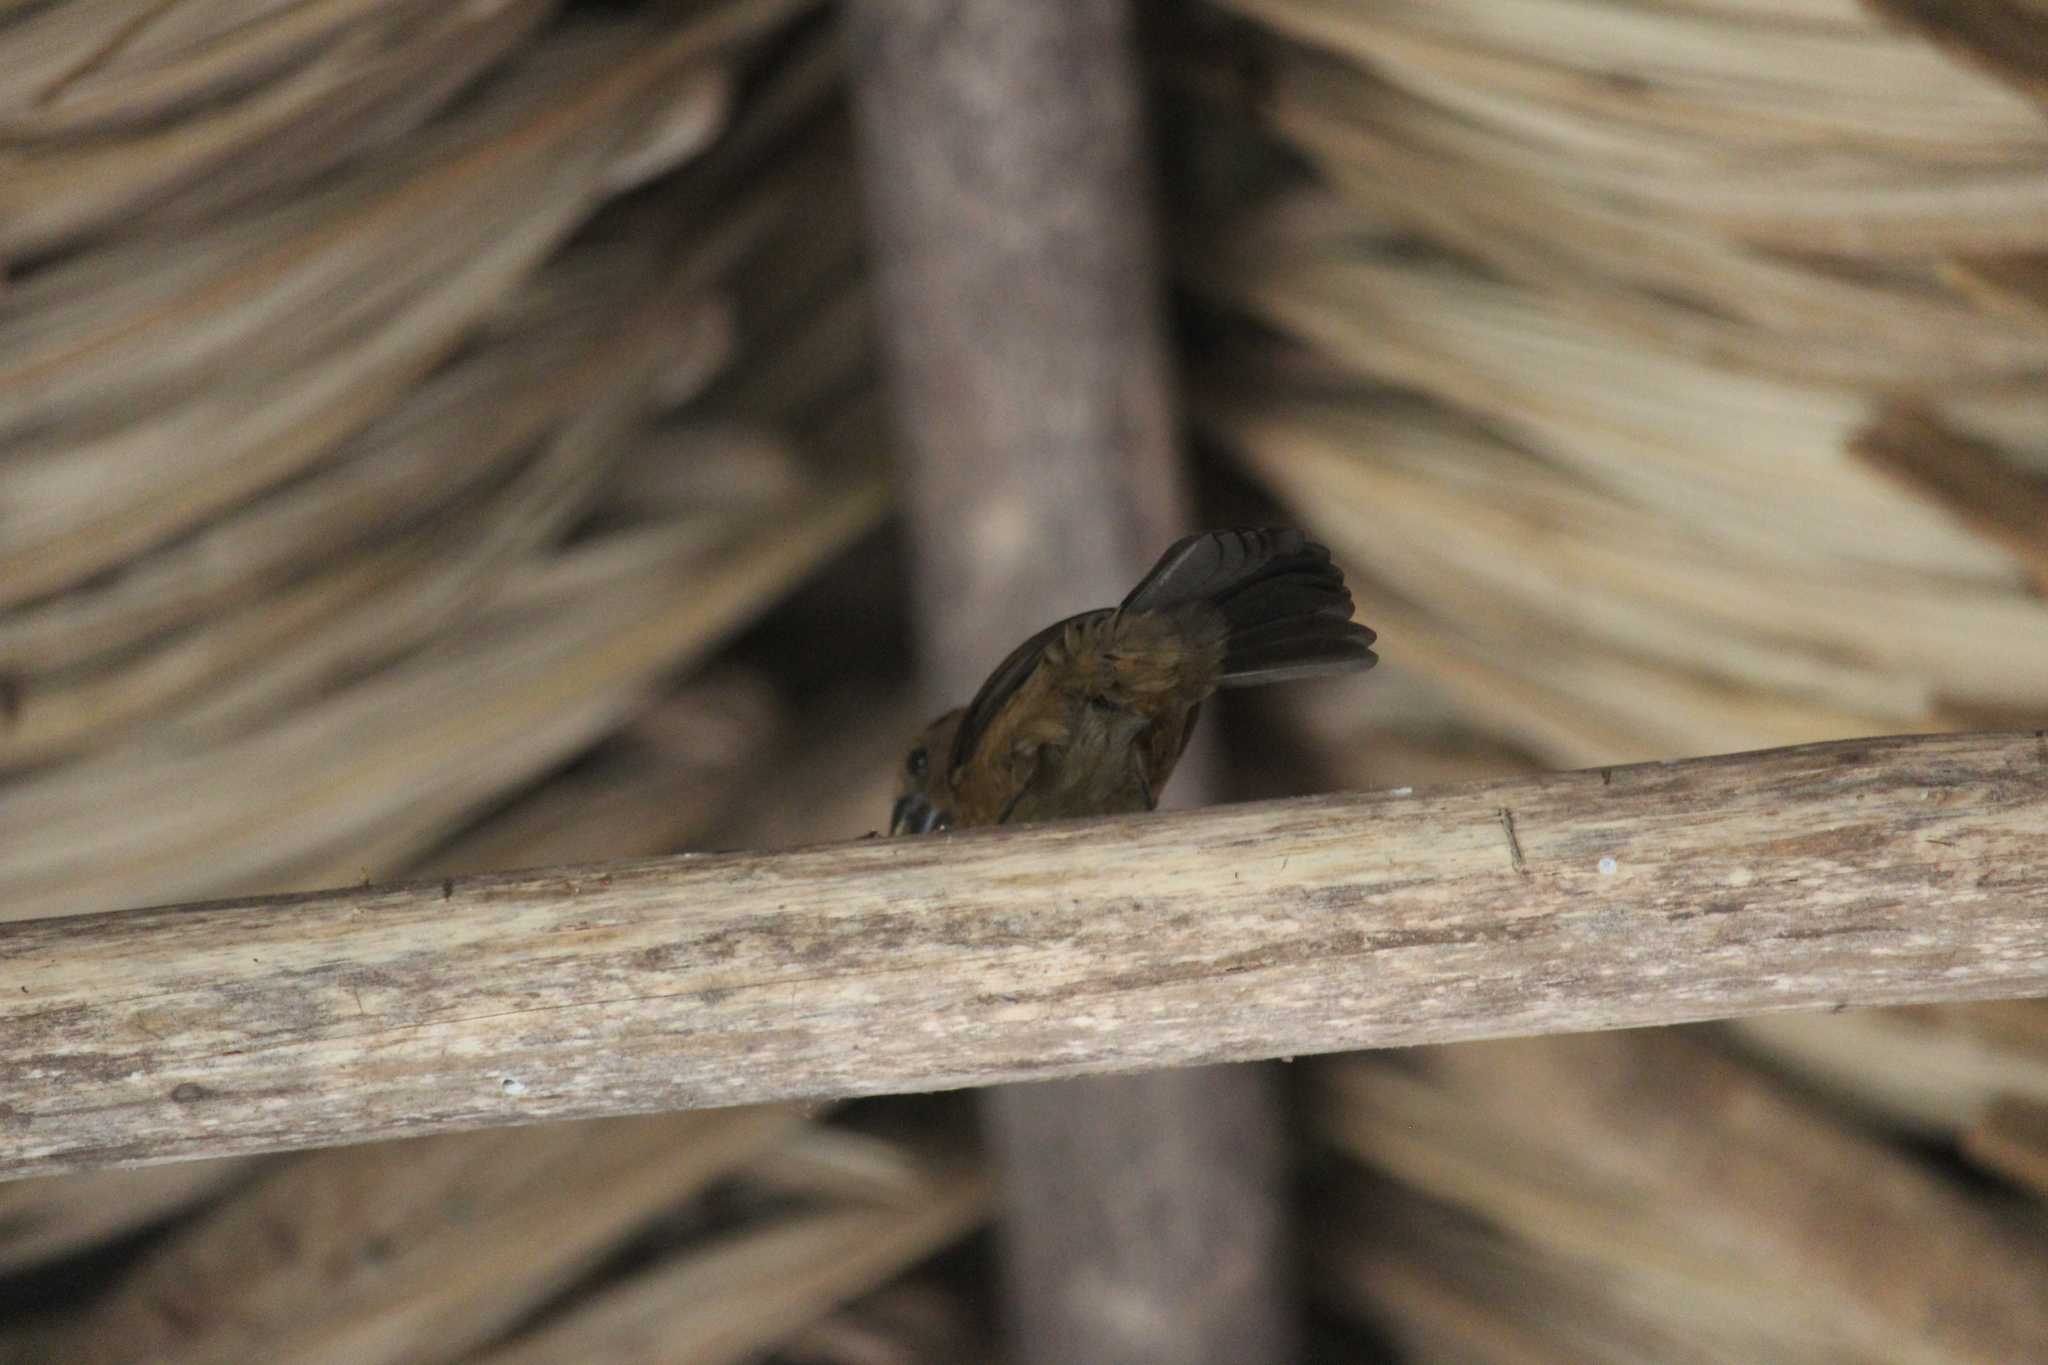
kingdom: Animalia
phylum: Chordata
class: Aves
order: Passeriformes
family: Cardinalidae
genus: Cyanocompsa
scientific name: Cyanocompsa cyanoides
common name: Blue-black grosbeak
